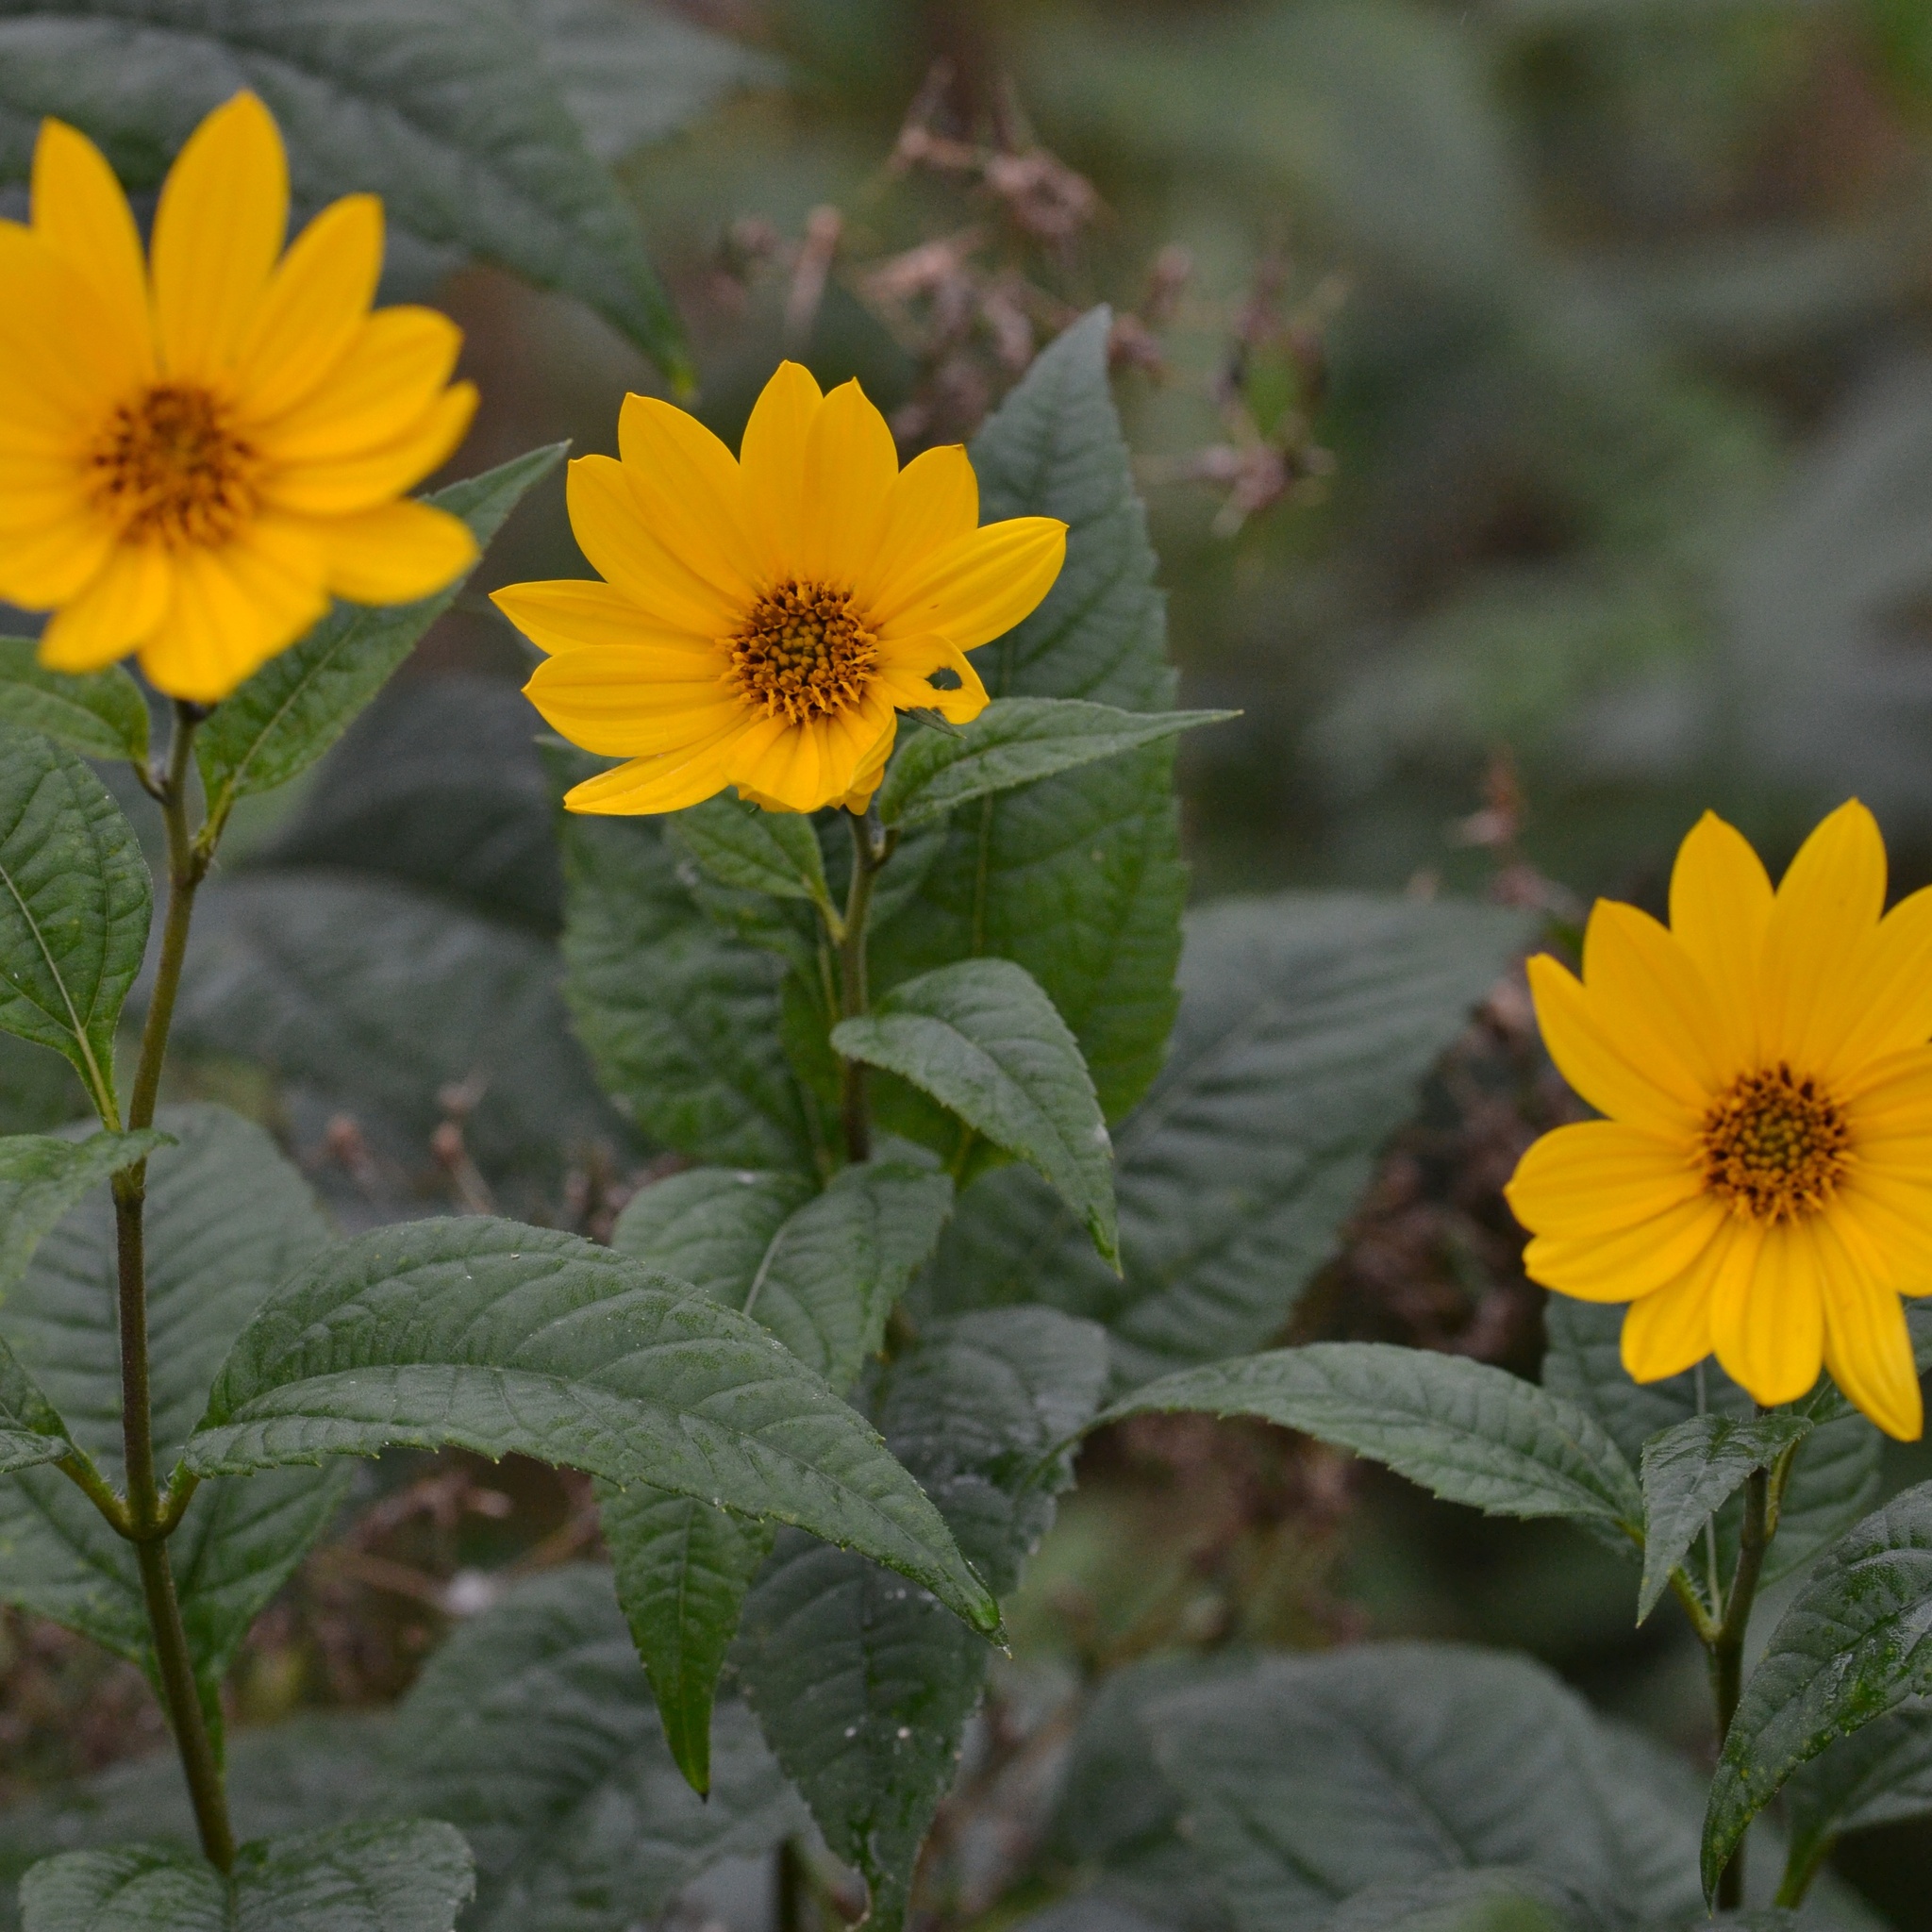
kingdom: Plantae
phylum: Tracheophyta
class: Magnoliopsida
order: Asterales
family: Asteraceae
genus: Helianthus
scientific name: Helianthus tuberosus
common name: Jerusalem artichoke
